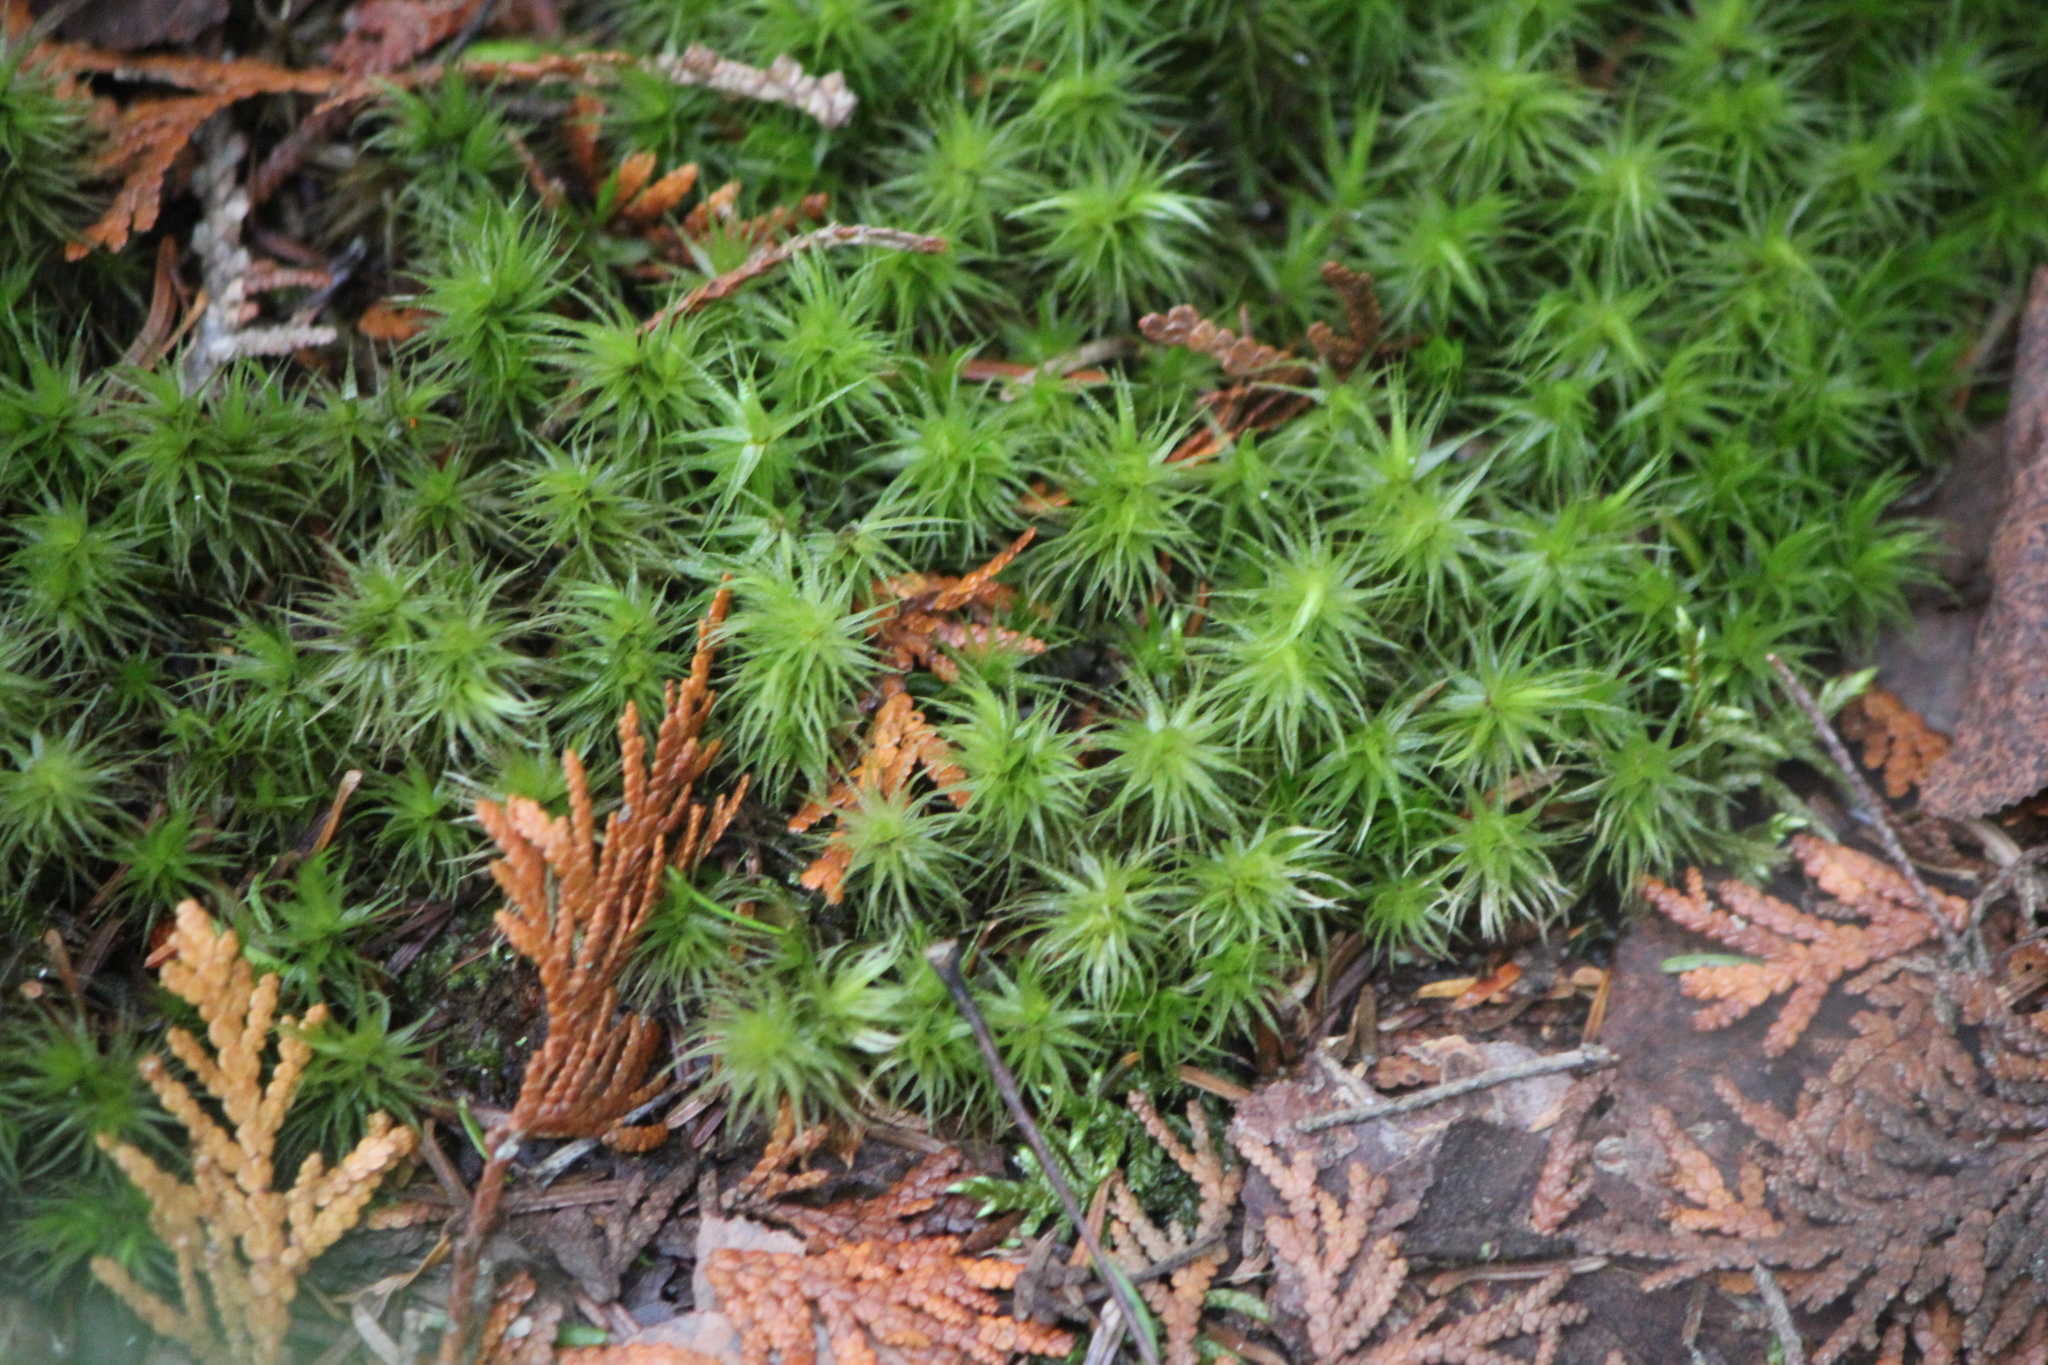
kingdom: Plantae
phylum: Bryophyta
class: Bryopsida
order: Dicranales
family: Dicranaceae
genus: Dicranum
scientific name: Dicranum polysetum
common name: Rugose fork-moss
